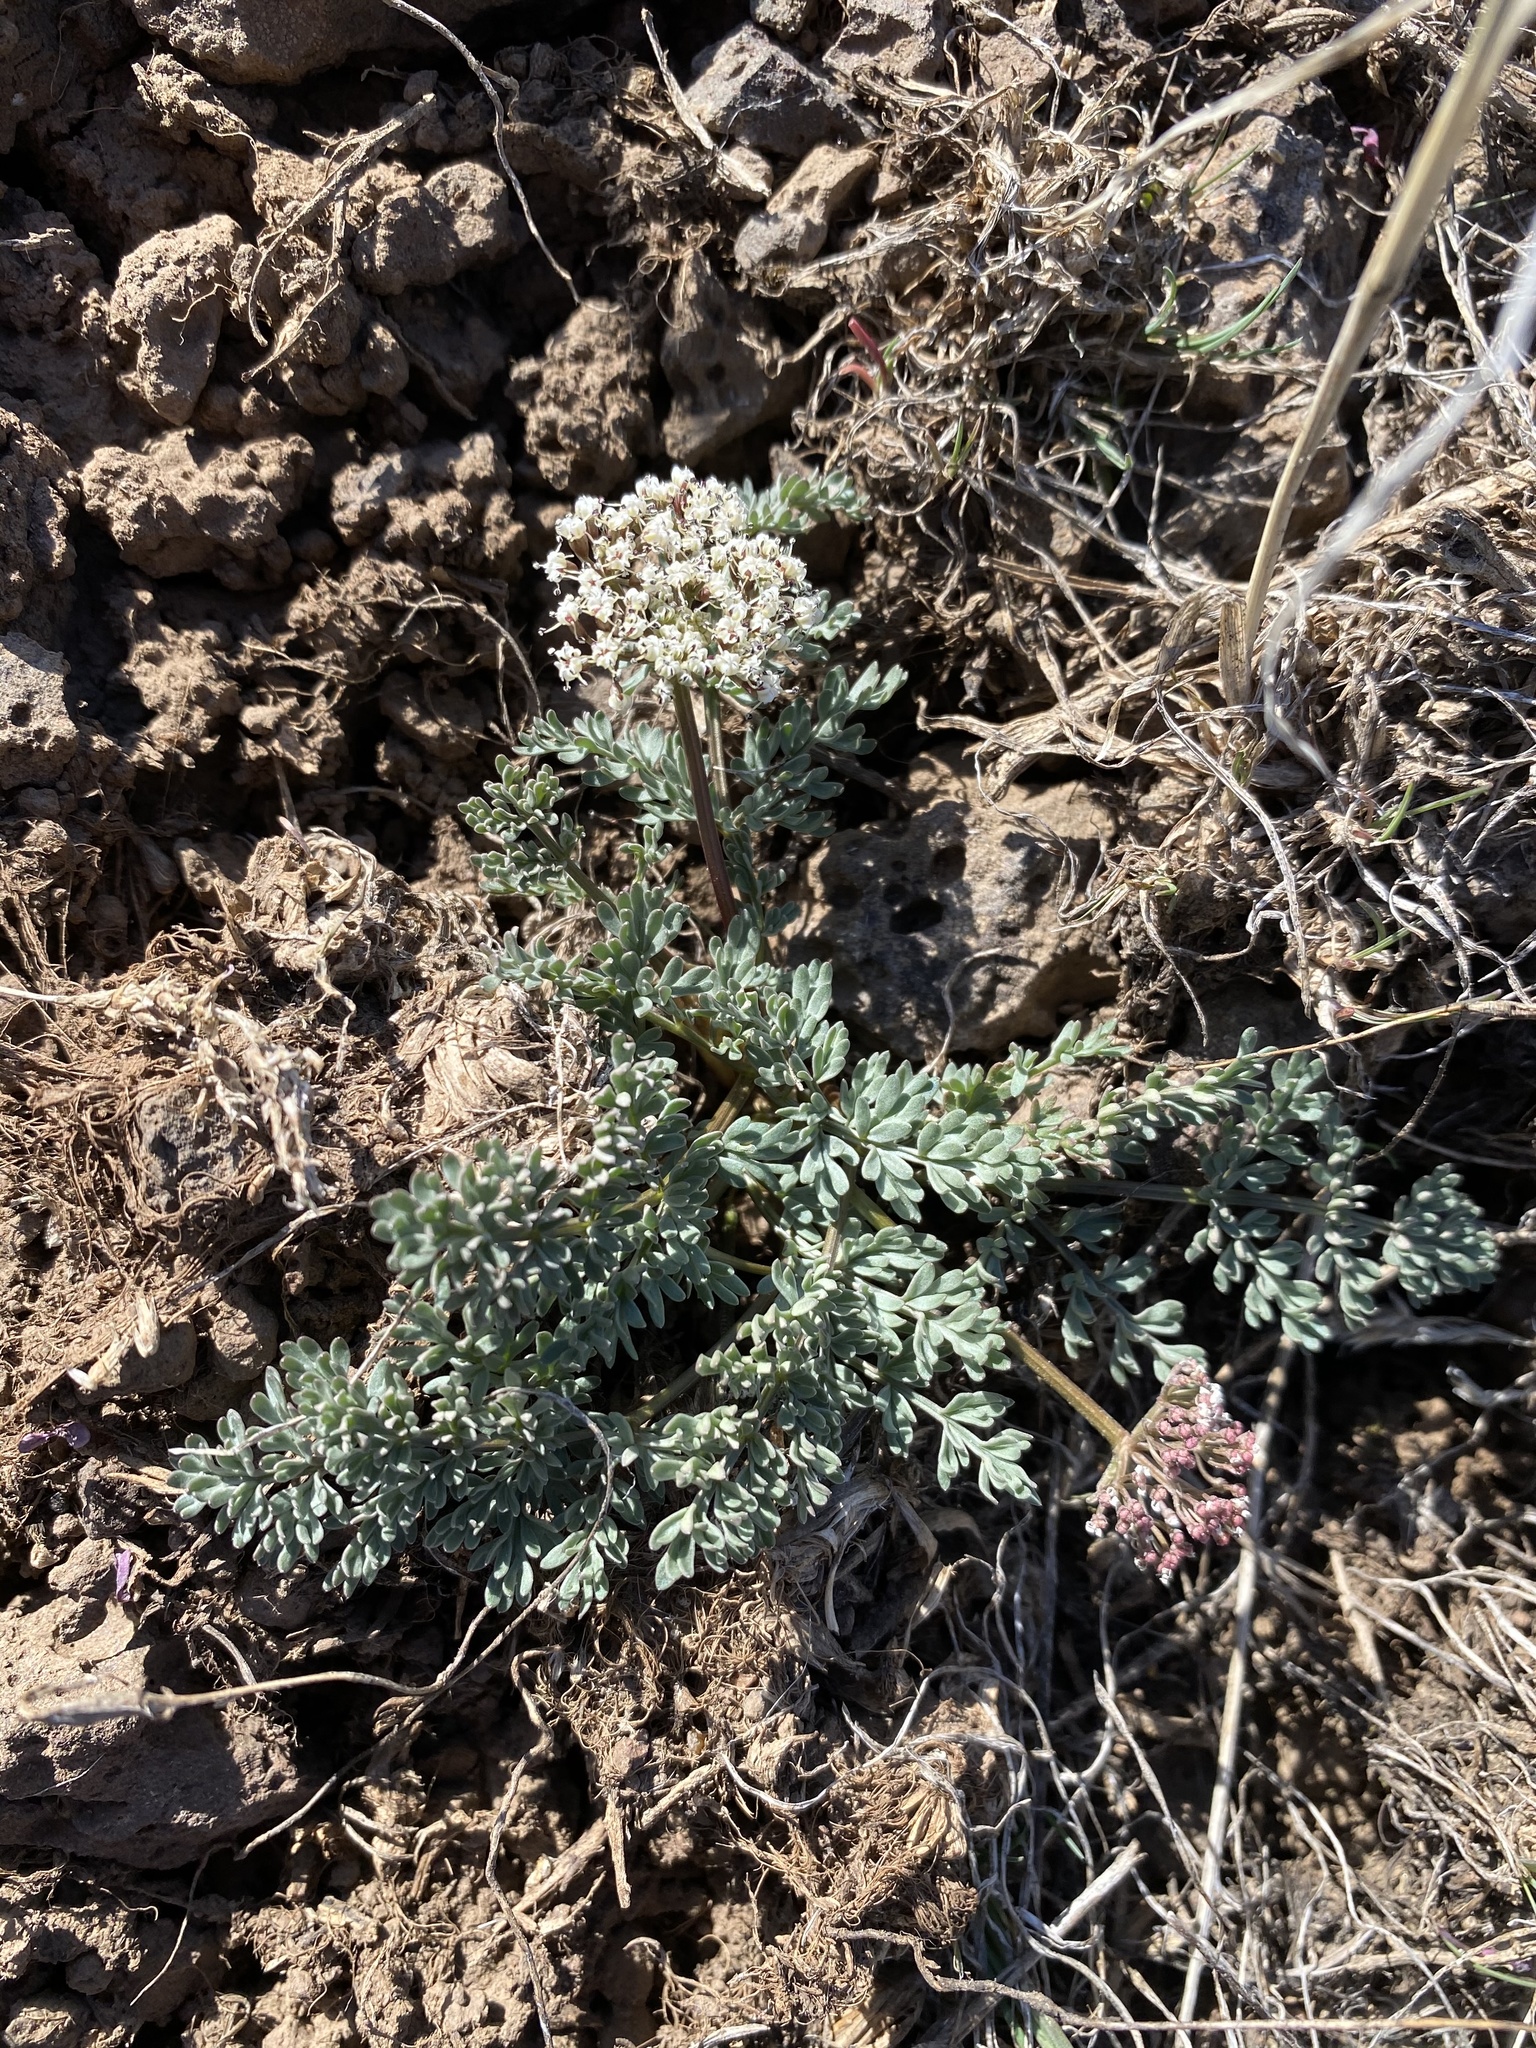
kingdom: Plantae
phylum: Tracheophyta
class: Magnoliopsida
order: Apiales
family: Apiaceae
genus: Lomatium
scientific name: Lomatium canbyi
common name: Chucklusa
